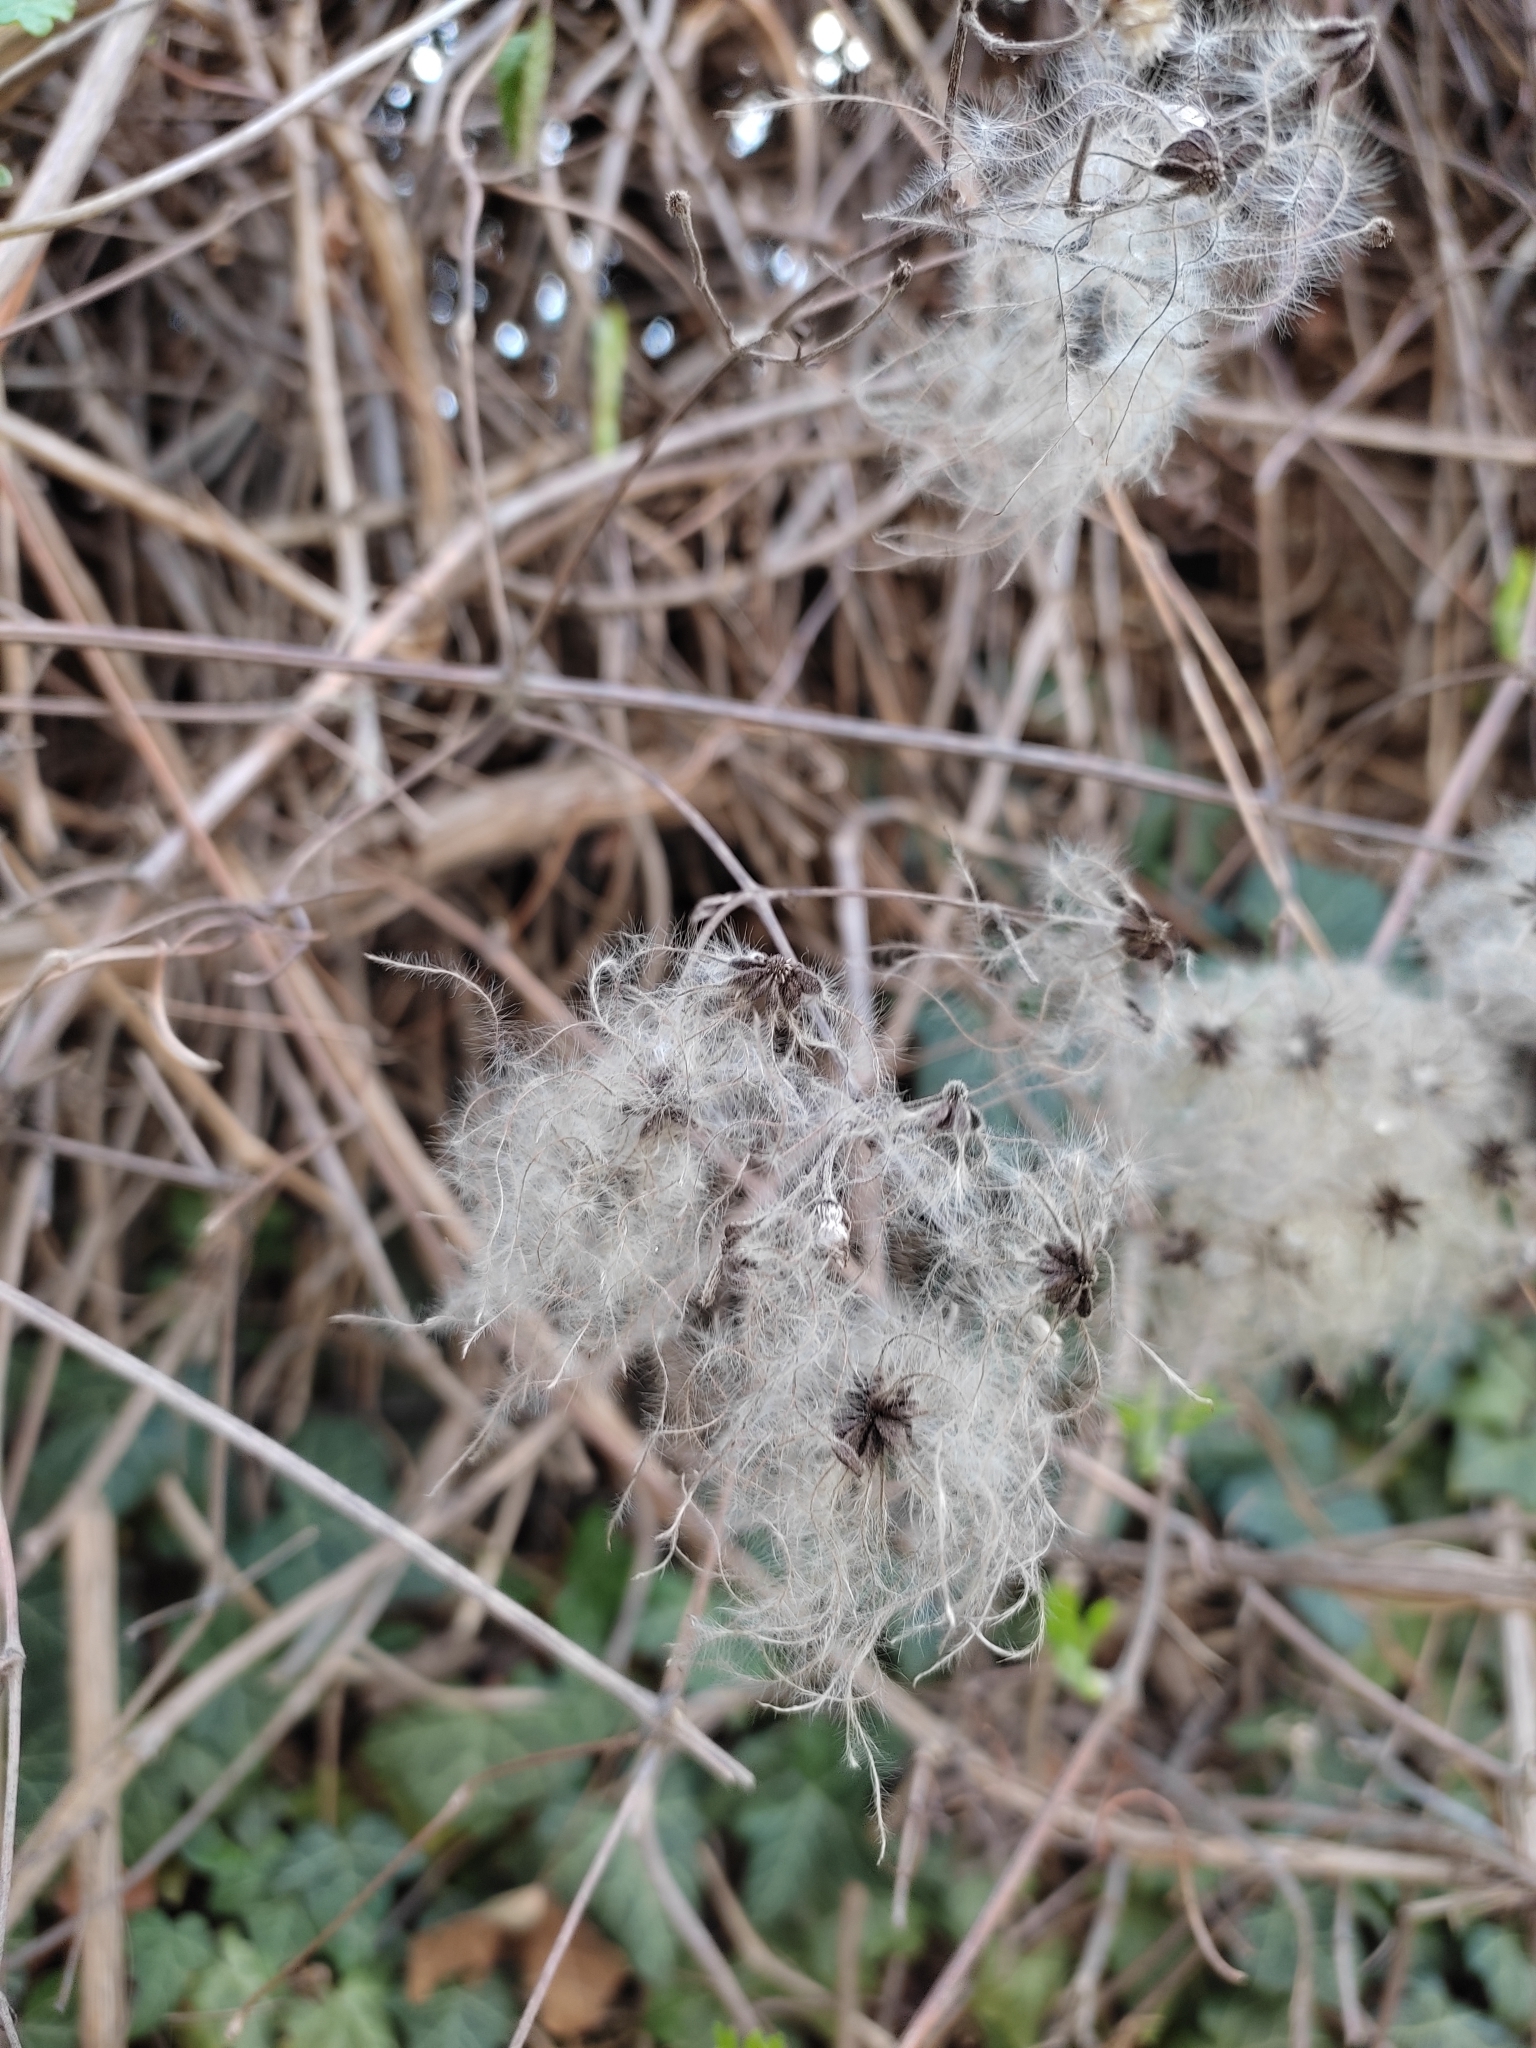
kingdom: Plantae
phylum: Tracheophyta
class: Magnoliopsida
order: Ranunculales
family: Ranunculaceae
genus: Clematis
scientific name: Clematis vitalba
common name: Evergreen clematis
